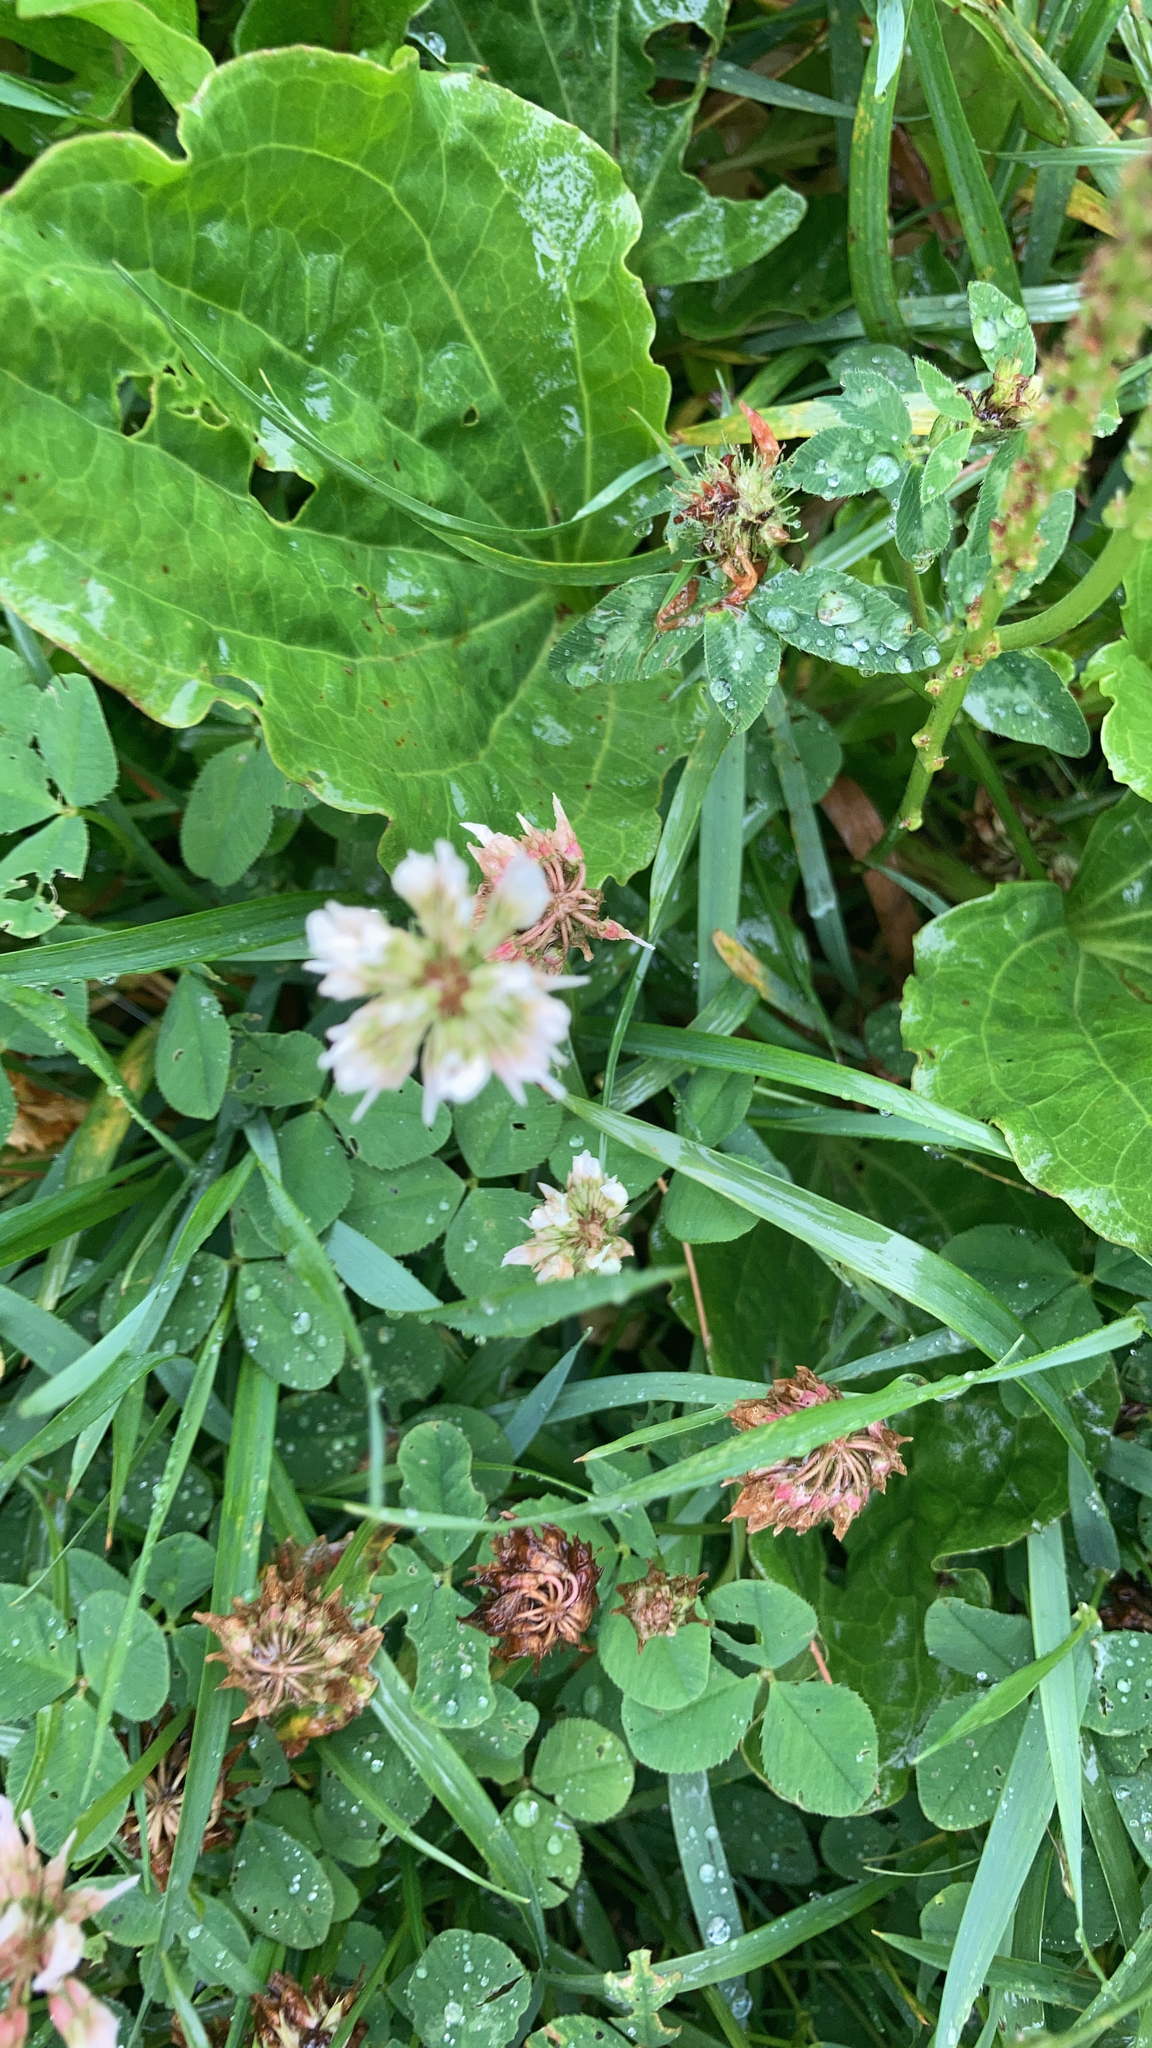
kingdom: Plantae
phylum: Tracheophyta
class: Magnoliopsida
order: Fabales
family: Fabaceae
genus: Trifolium
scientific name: Trifolium repens
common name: White clover
